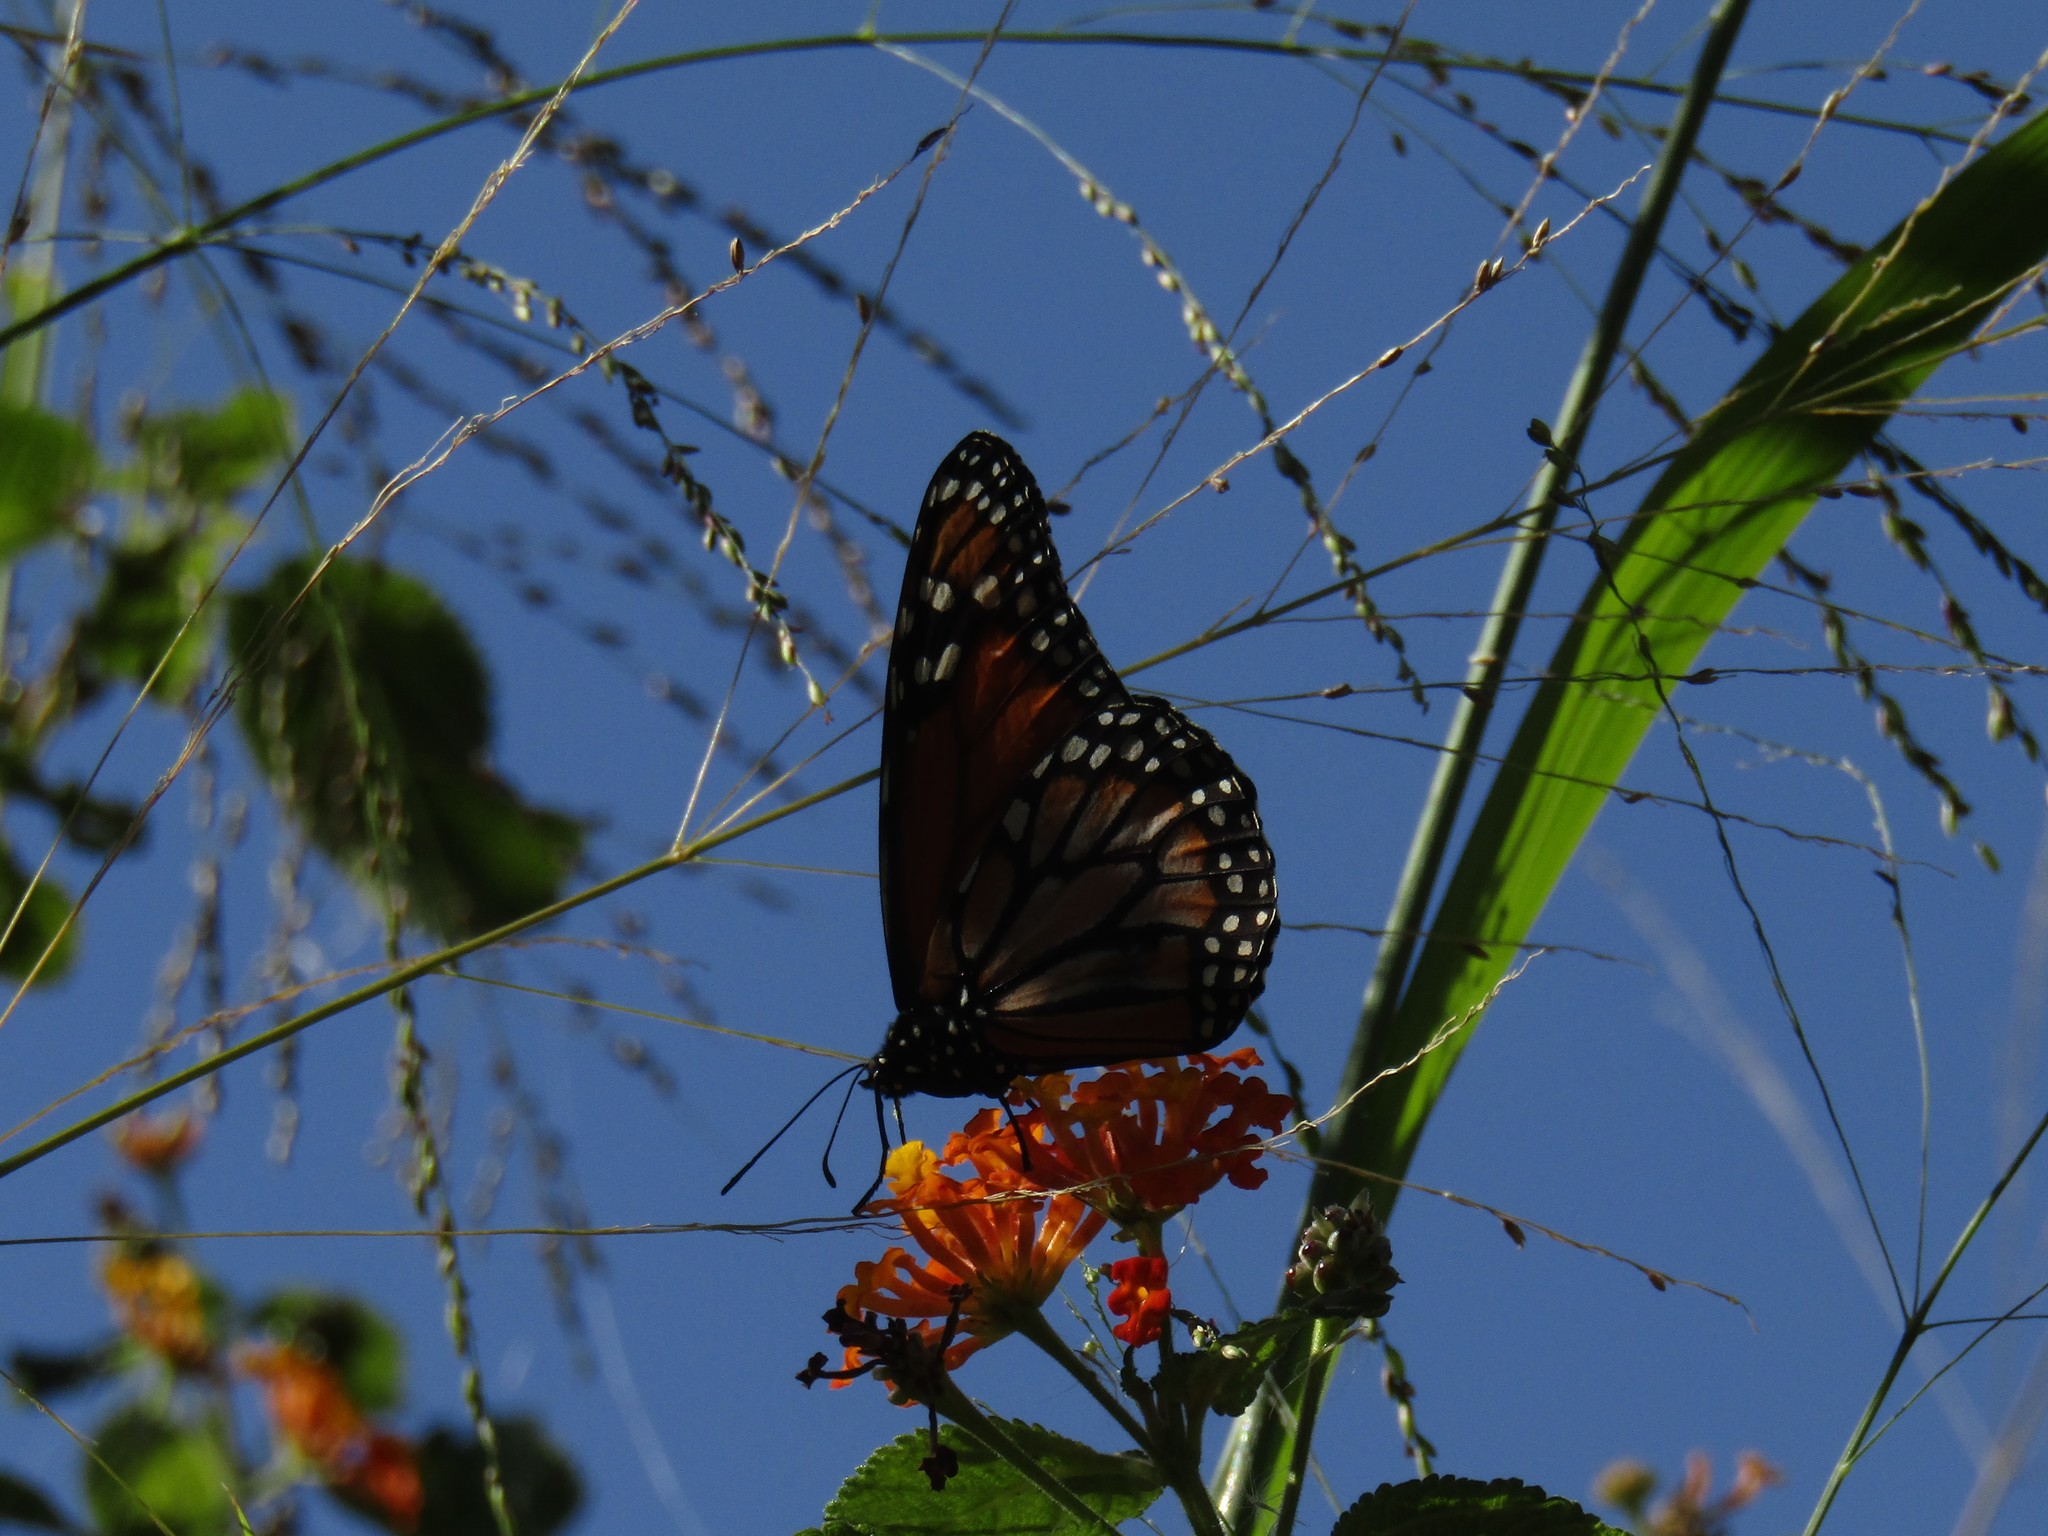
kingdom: Animalia
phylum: Arthropoda
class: Insecta
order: Lepidoptera
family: Nymphalidae
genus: Danaus
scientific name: Danaus erippus
